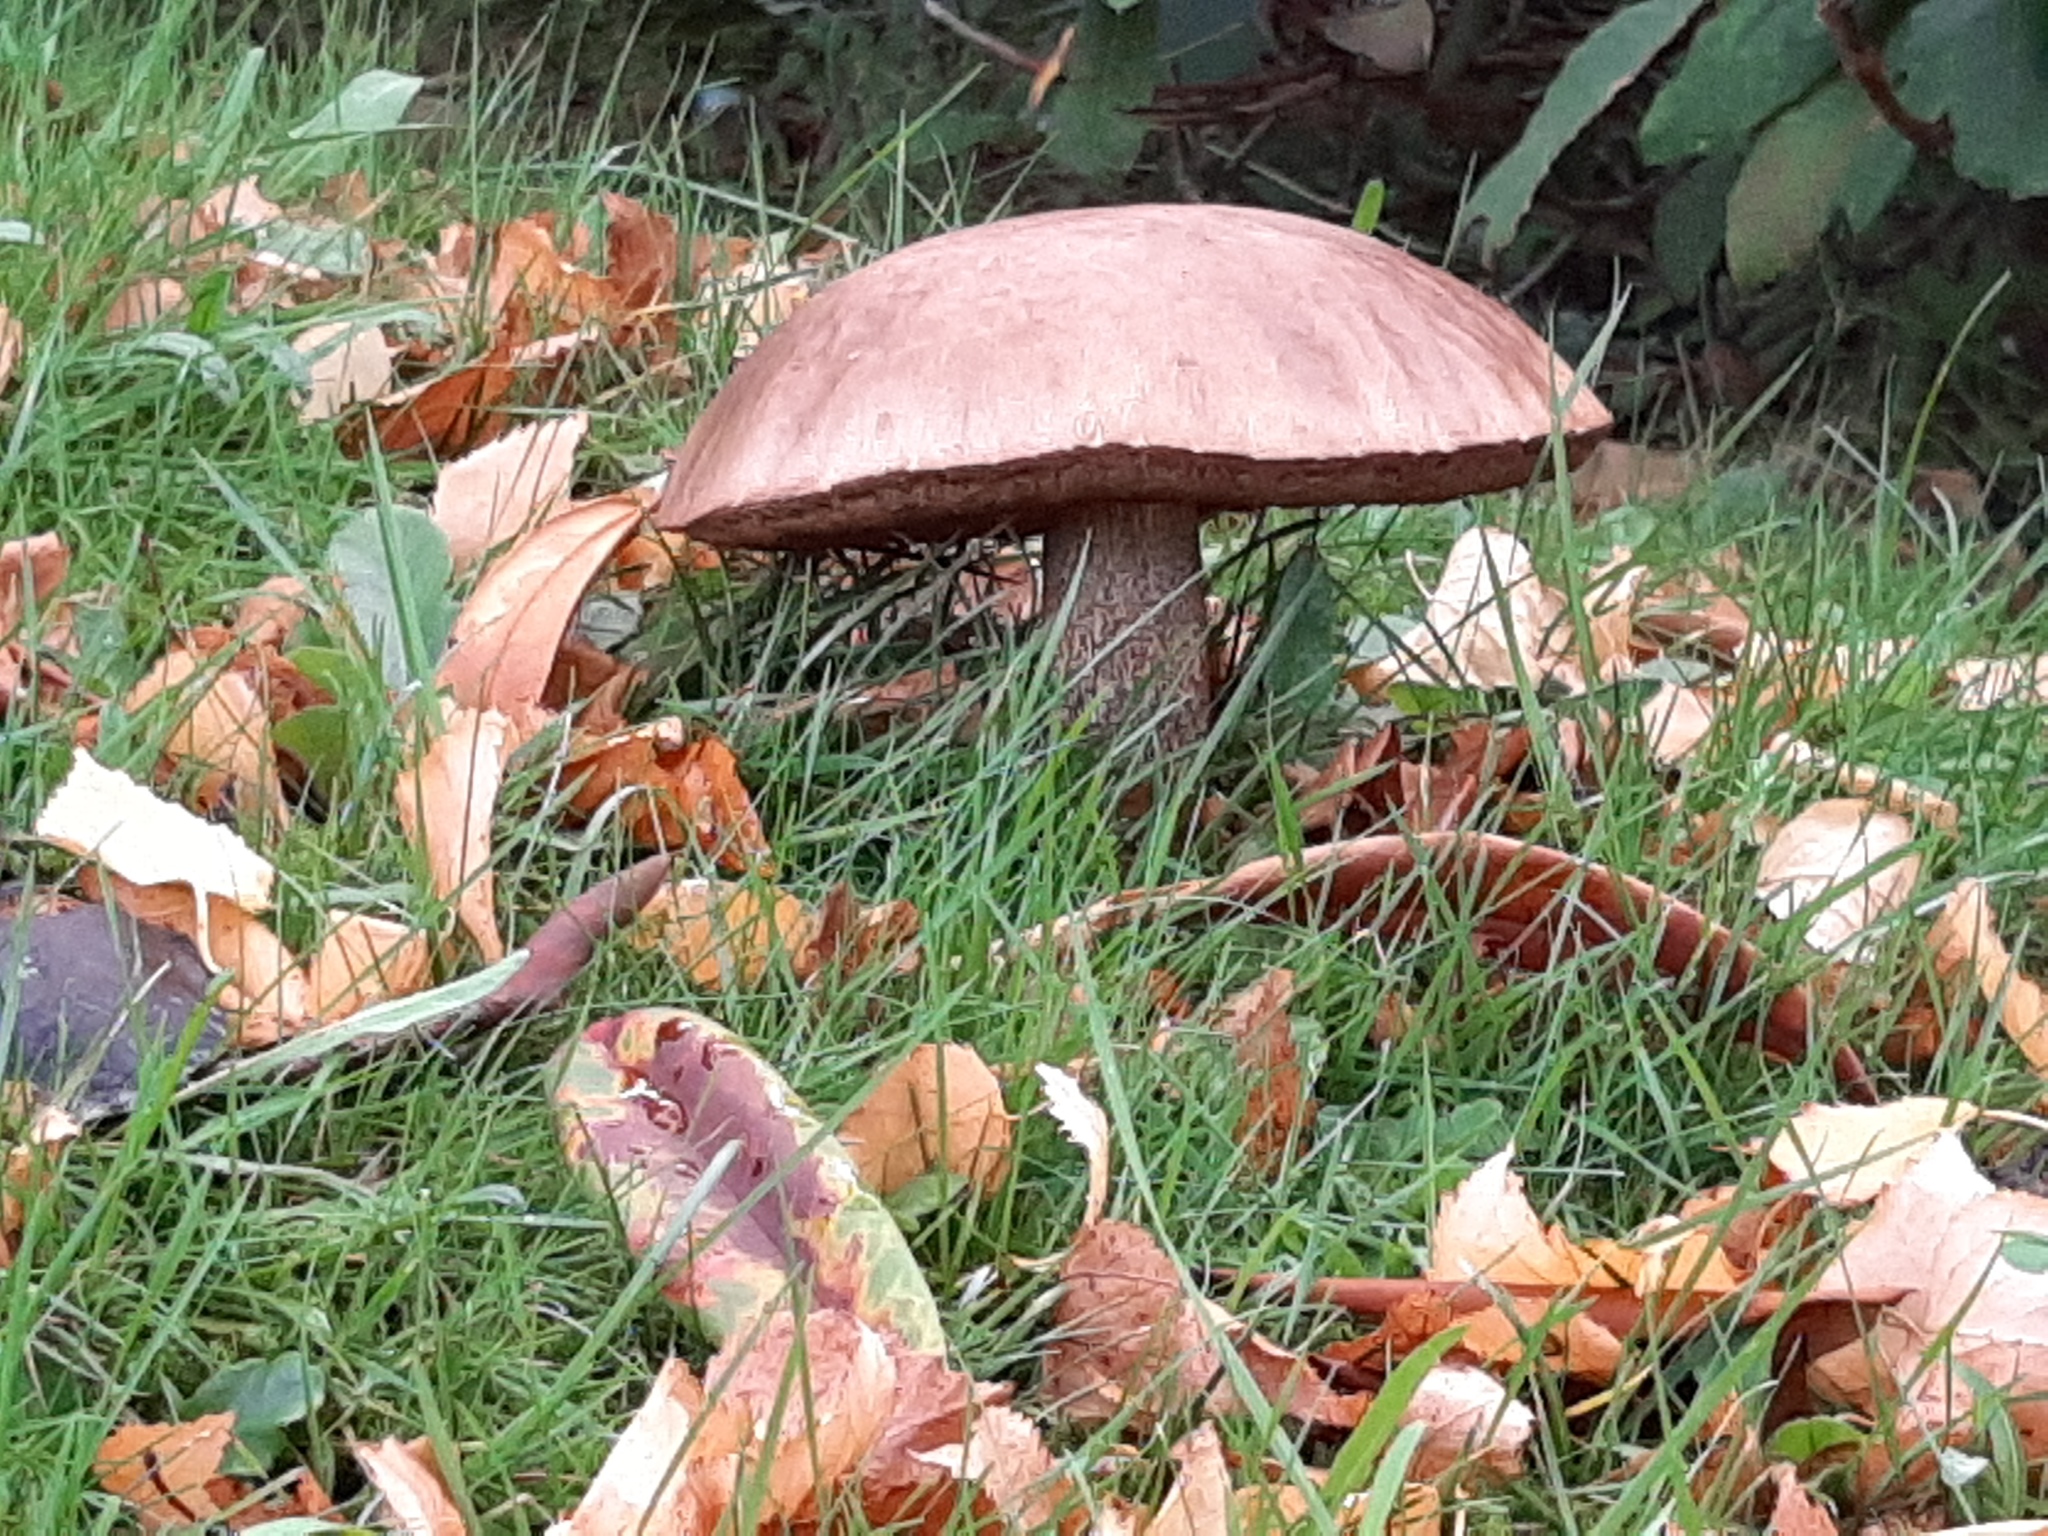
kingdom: Fungi
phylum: Basidiomycota
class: Agaricomycetes
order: Boletales
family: Boletaceae
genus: Leccinum
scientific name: Leccinum scabrum
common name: Blushing bolete
